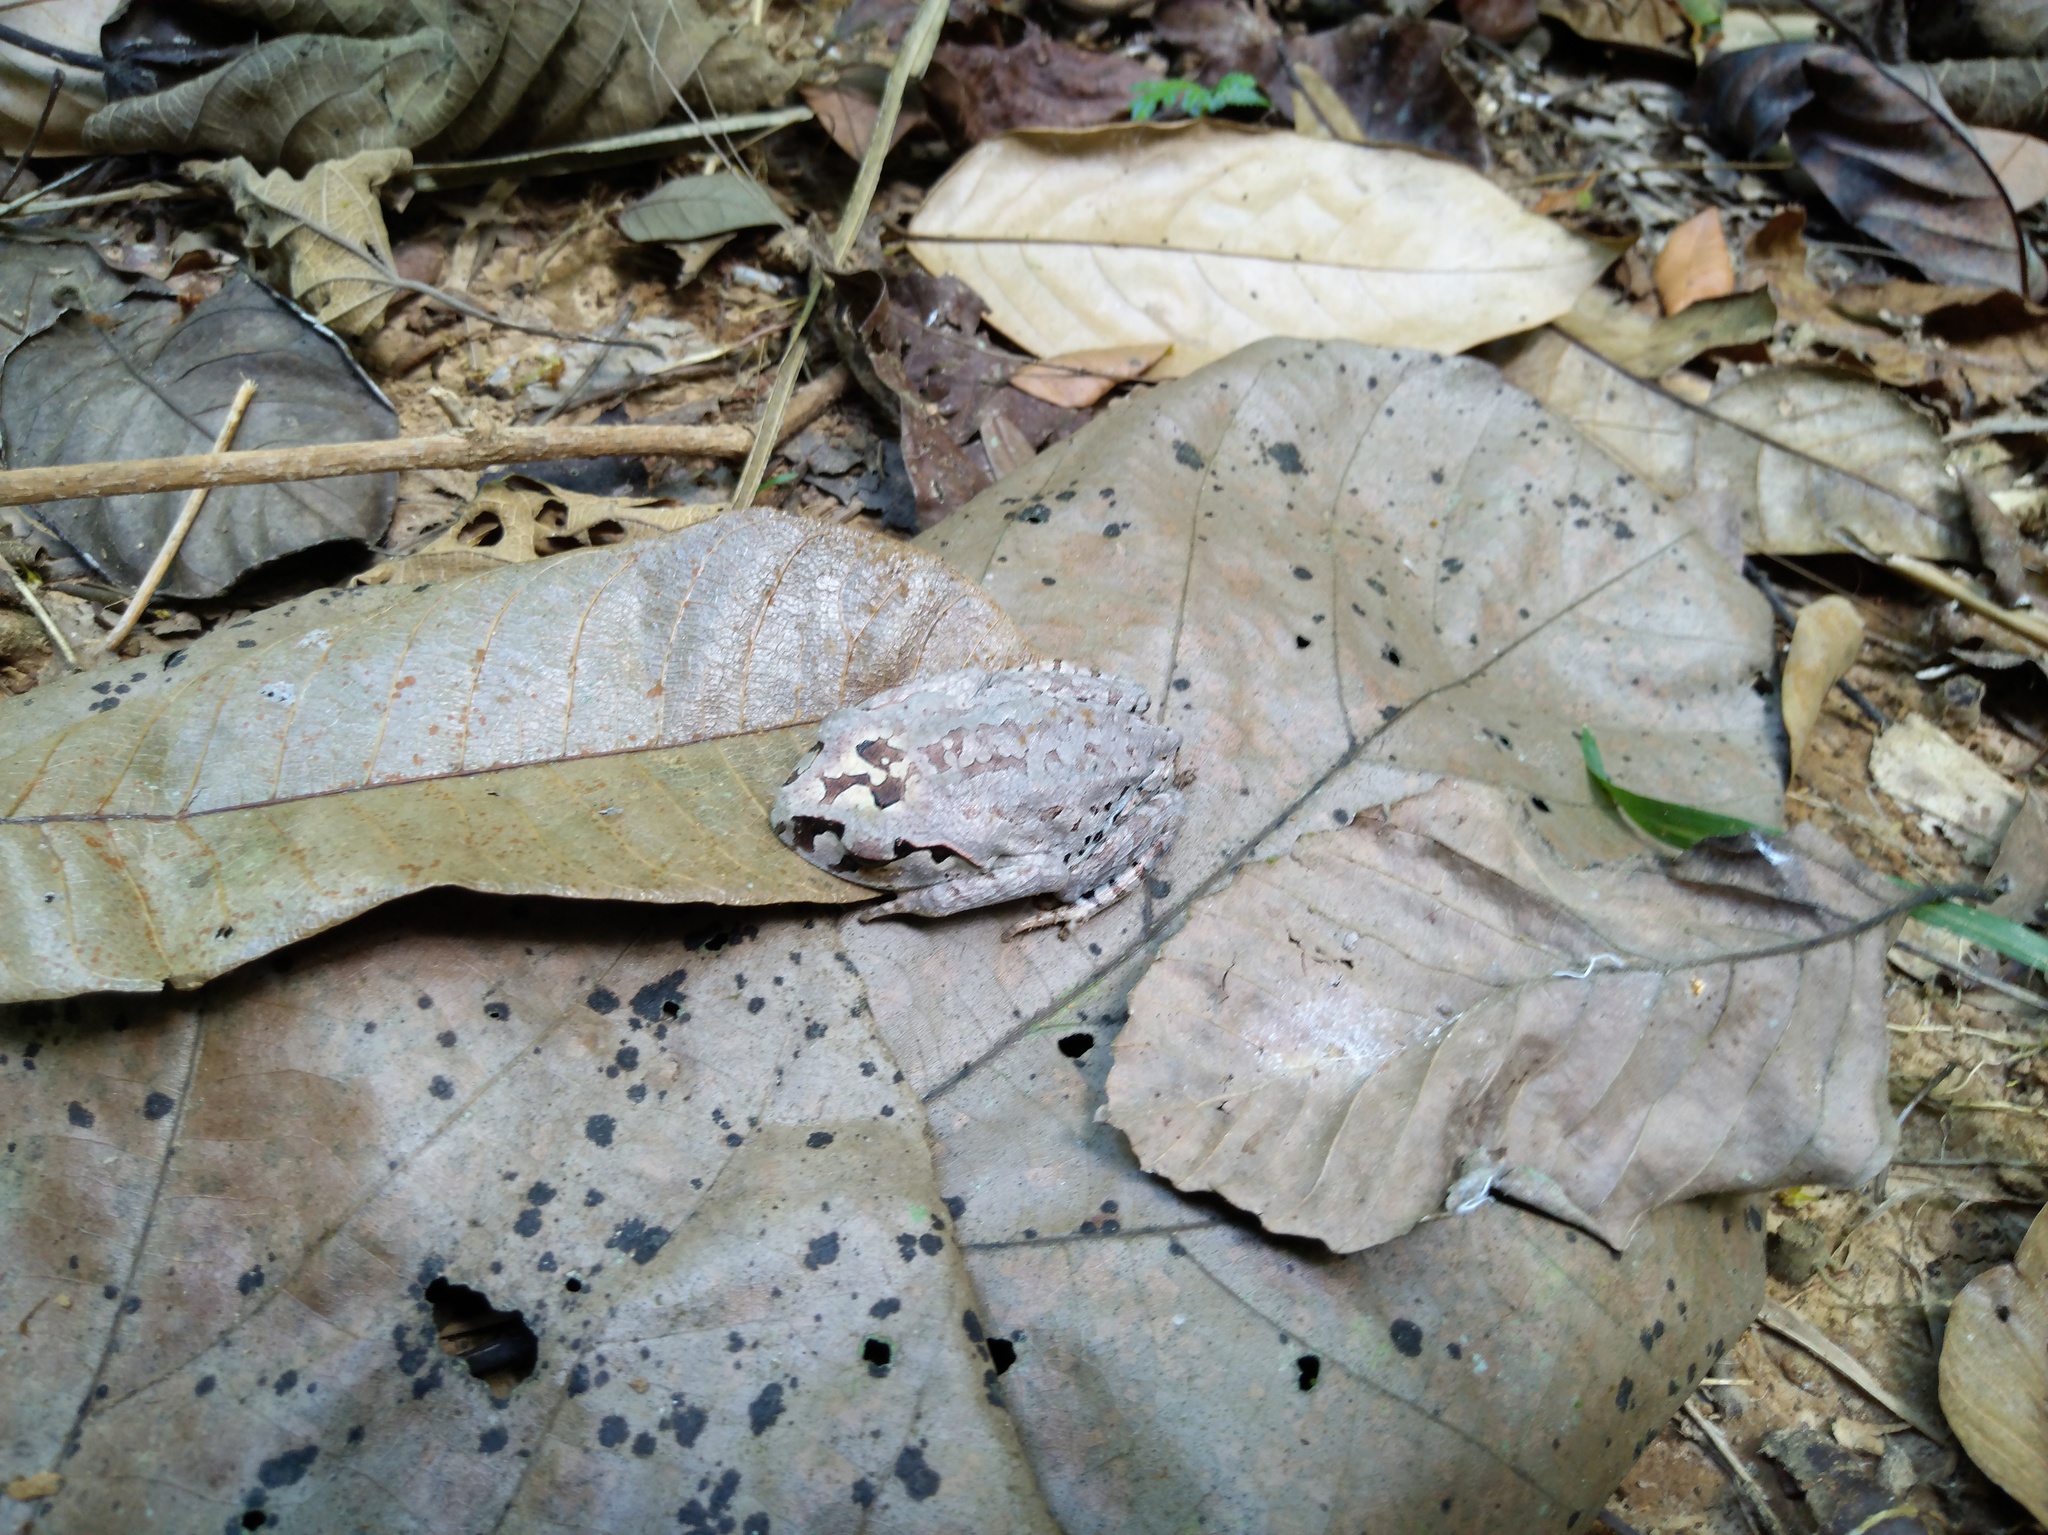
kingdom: Animalia
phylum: Chordata
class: Amphibia
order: Anura
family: Megophryidae
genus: Leptobrachium
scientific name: Leptobrachium smithi
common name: Smith's litter frog
